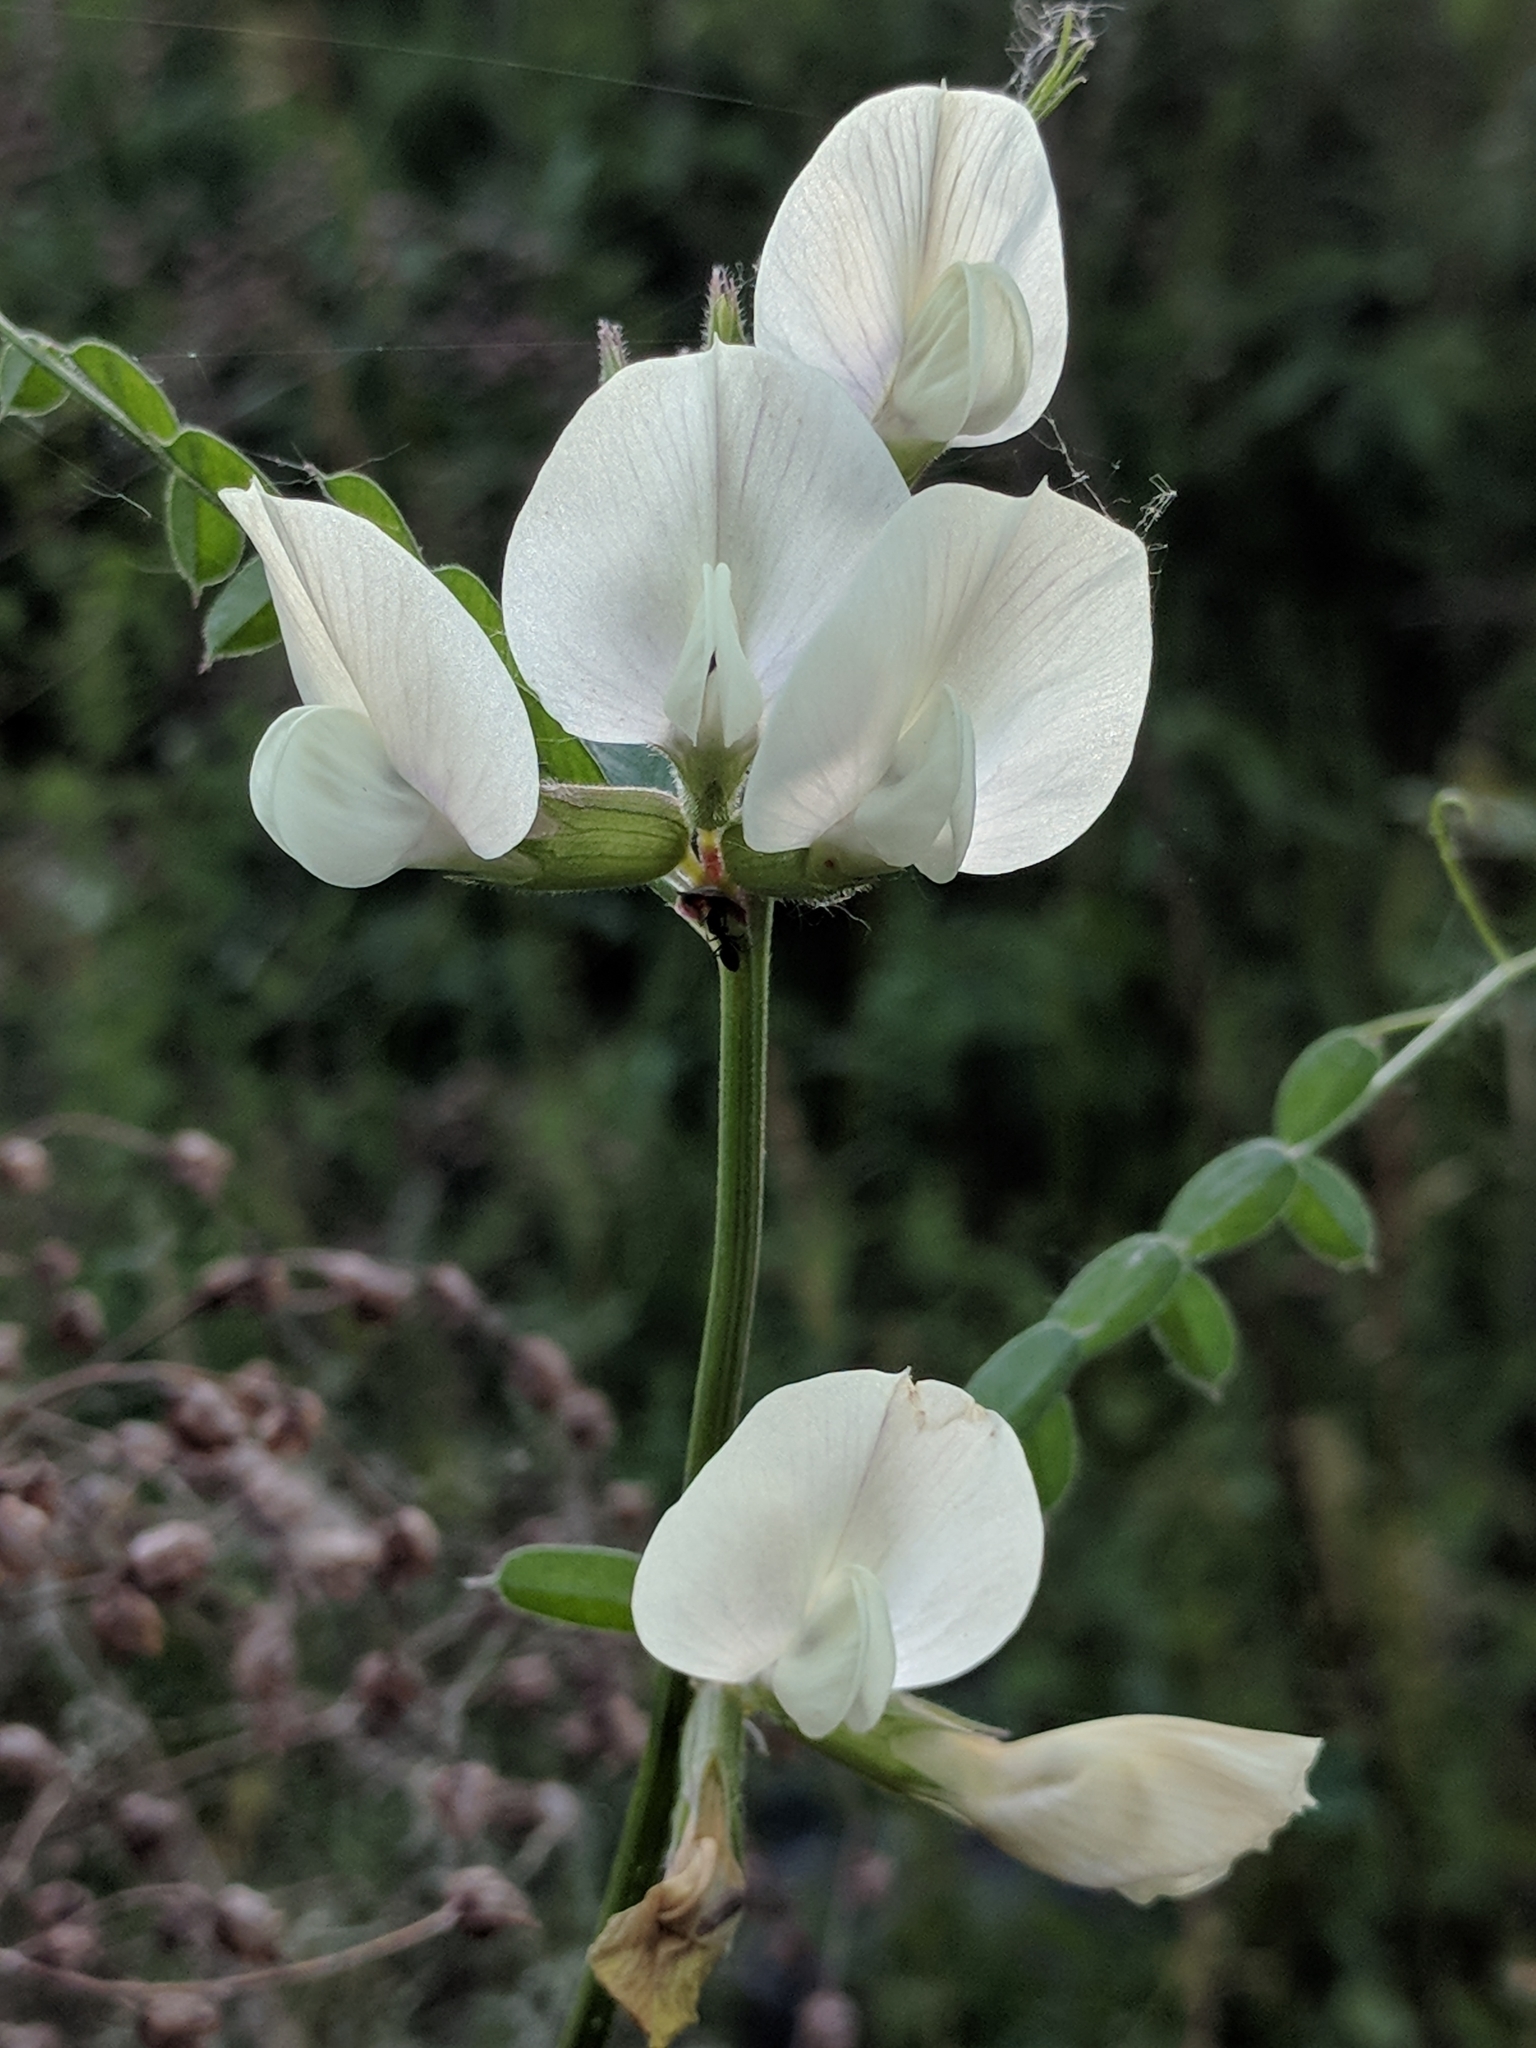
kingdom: Plantae
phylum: Tracheophyta
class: Magnoliopsida
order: Fabales
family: Fabaceae
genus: Vicia
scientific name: Vicia grandiflora
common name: Large yellow vetch
